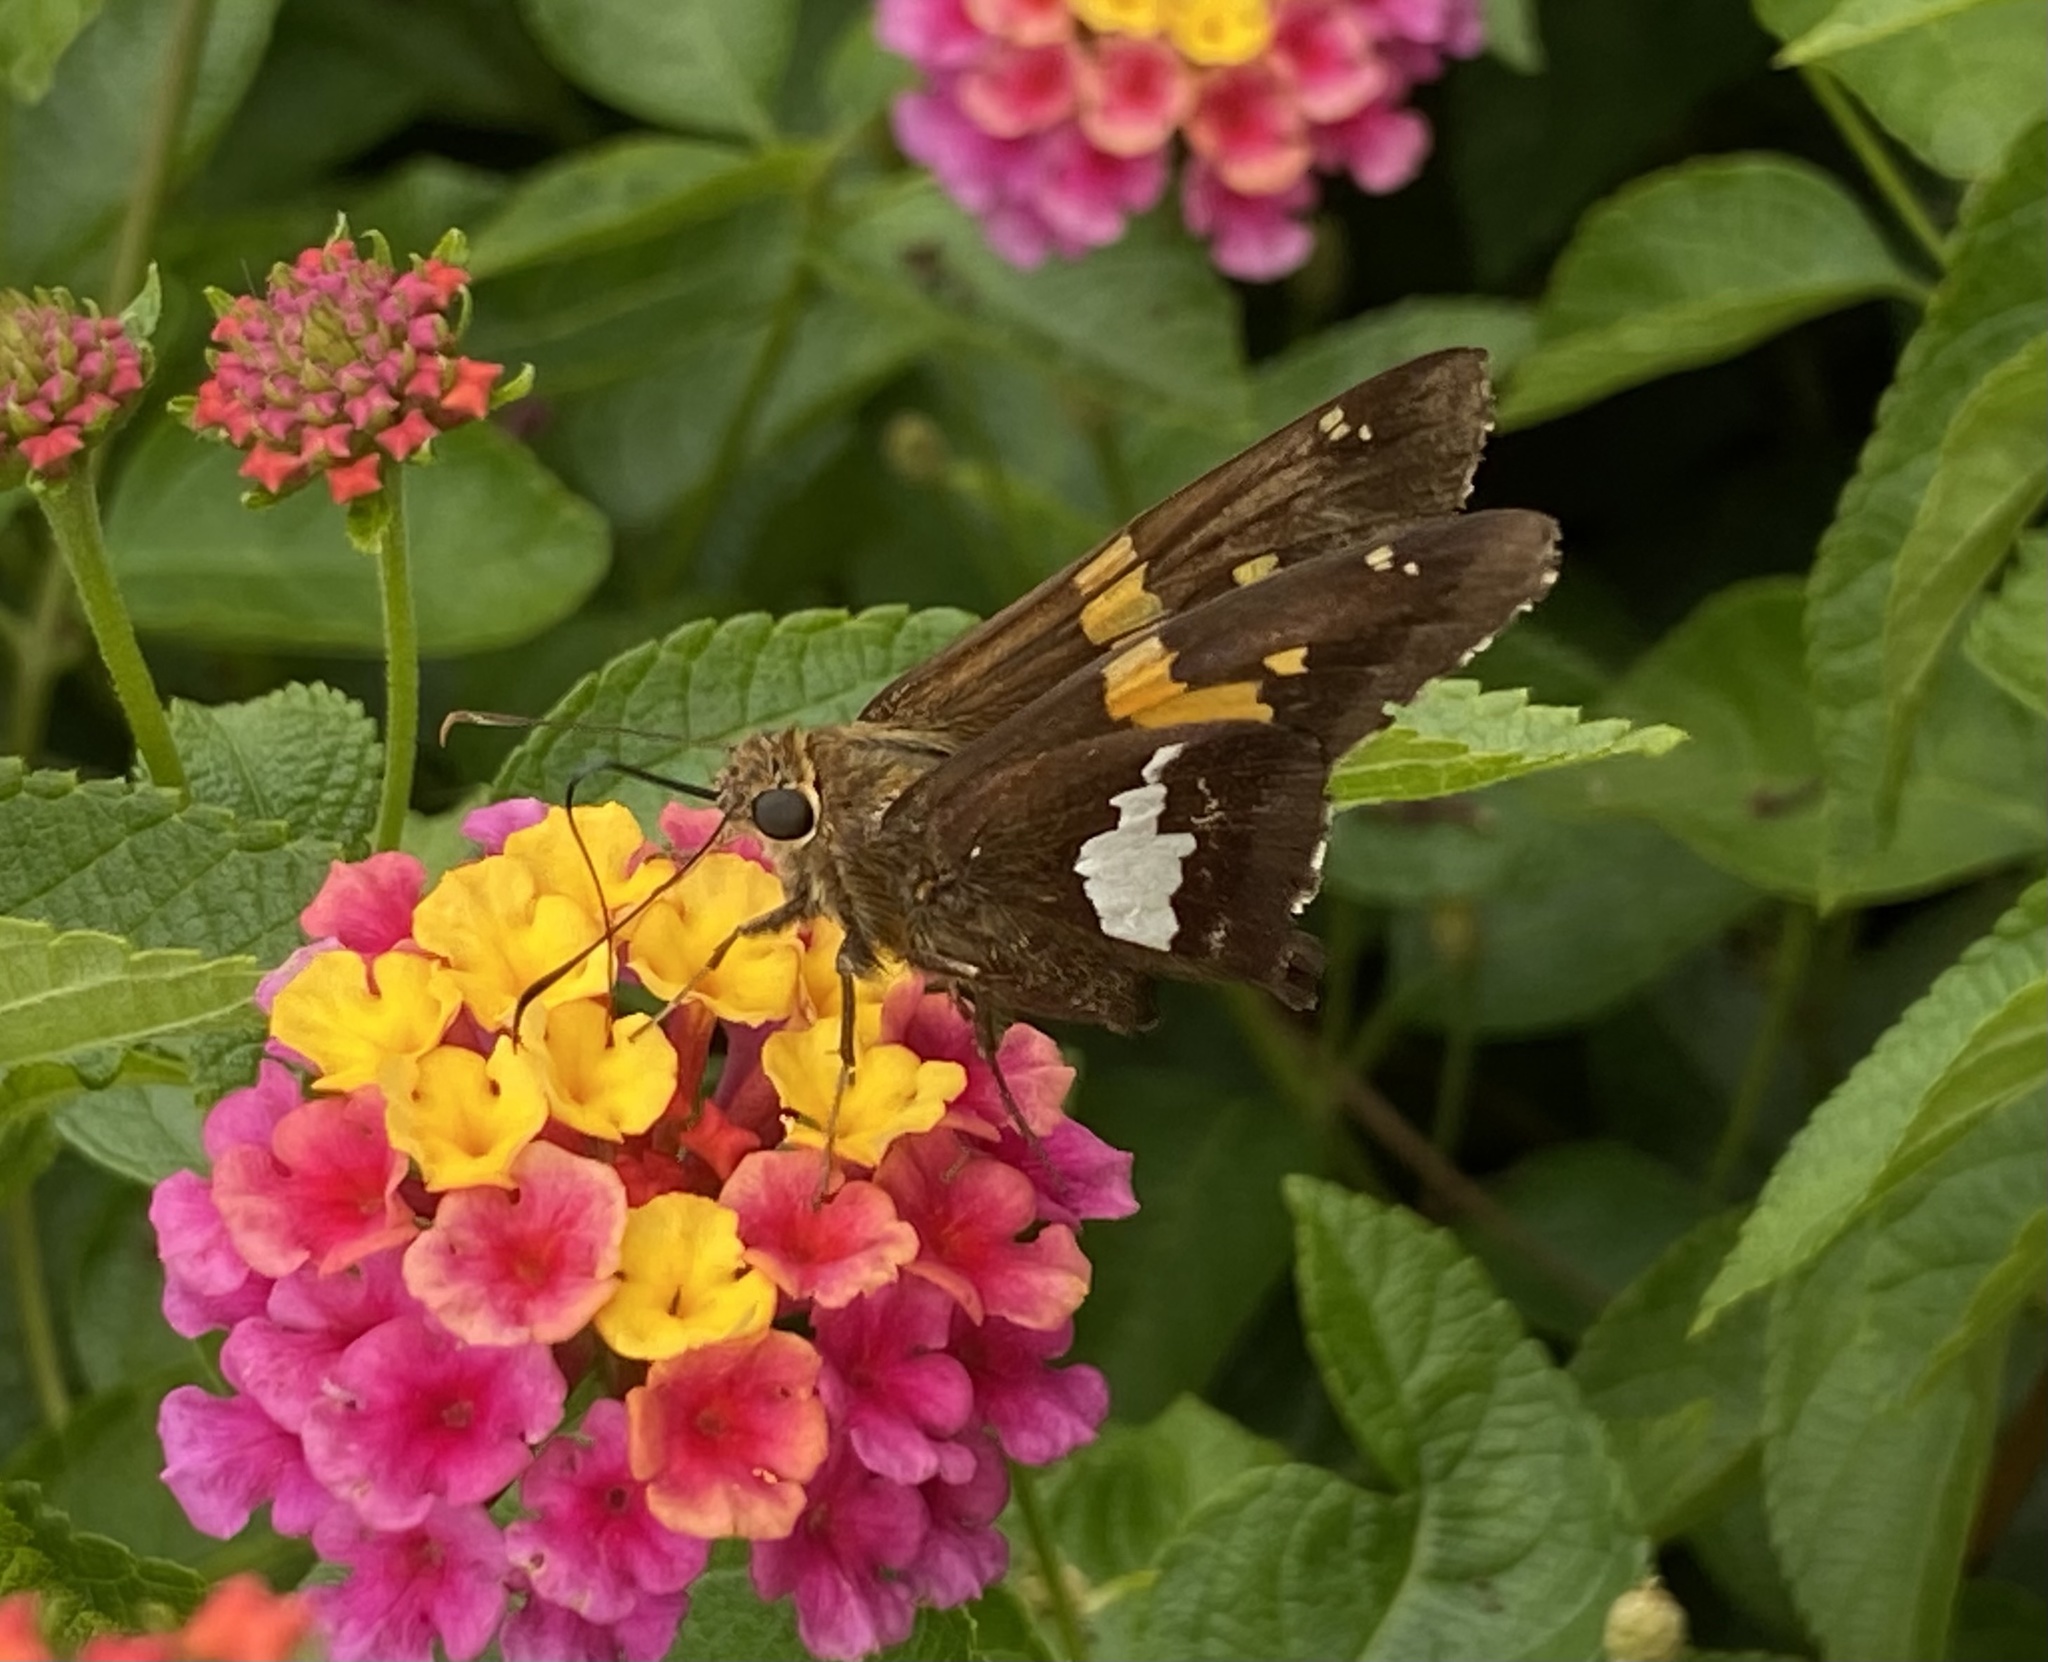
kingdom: Animalia
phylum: Arthropoda
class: Insecta
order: Lepidoptera
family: Hesperiidae
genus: Epargyreus
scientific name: Epargyreus clarus
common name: Silver-spotted skipper
